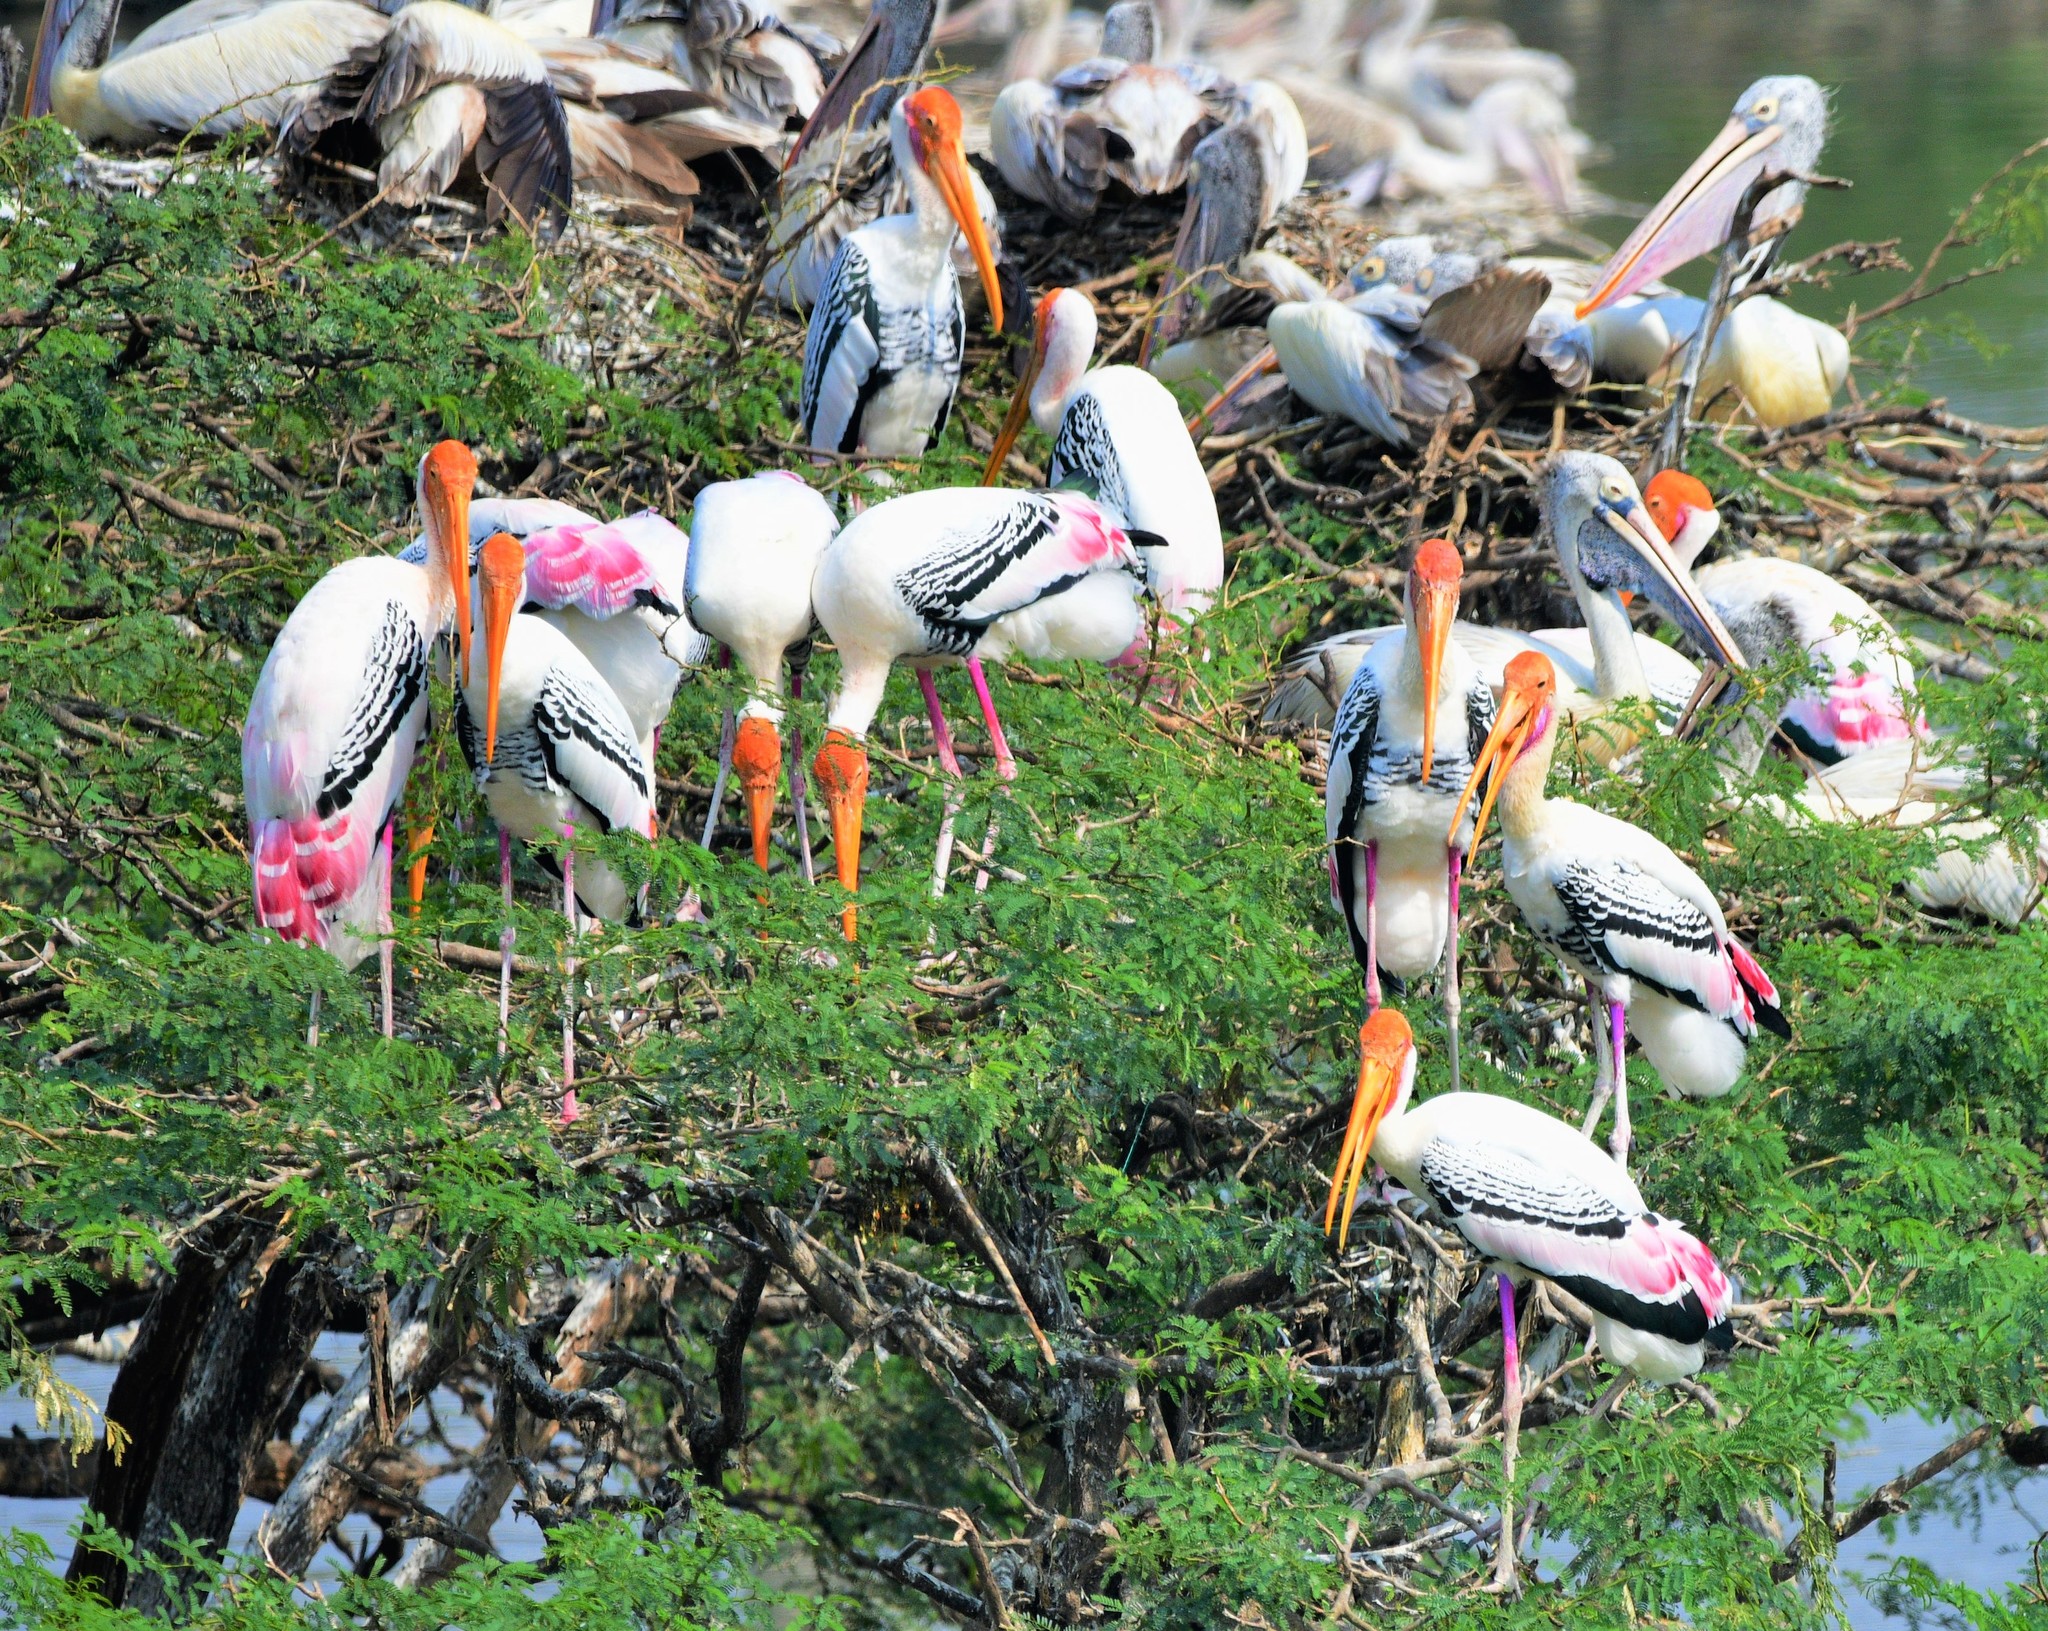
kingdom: Animalia
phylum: Chordata
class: Aves
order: Ciconiiformes
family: Ciconiidae
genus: Mycteria
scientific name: Mycteria leucocephala
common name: Painted stork
